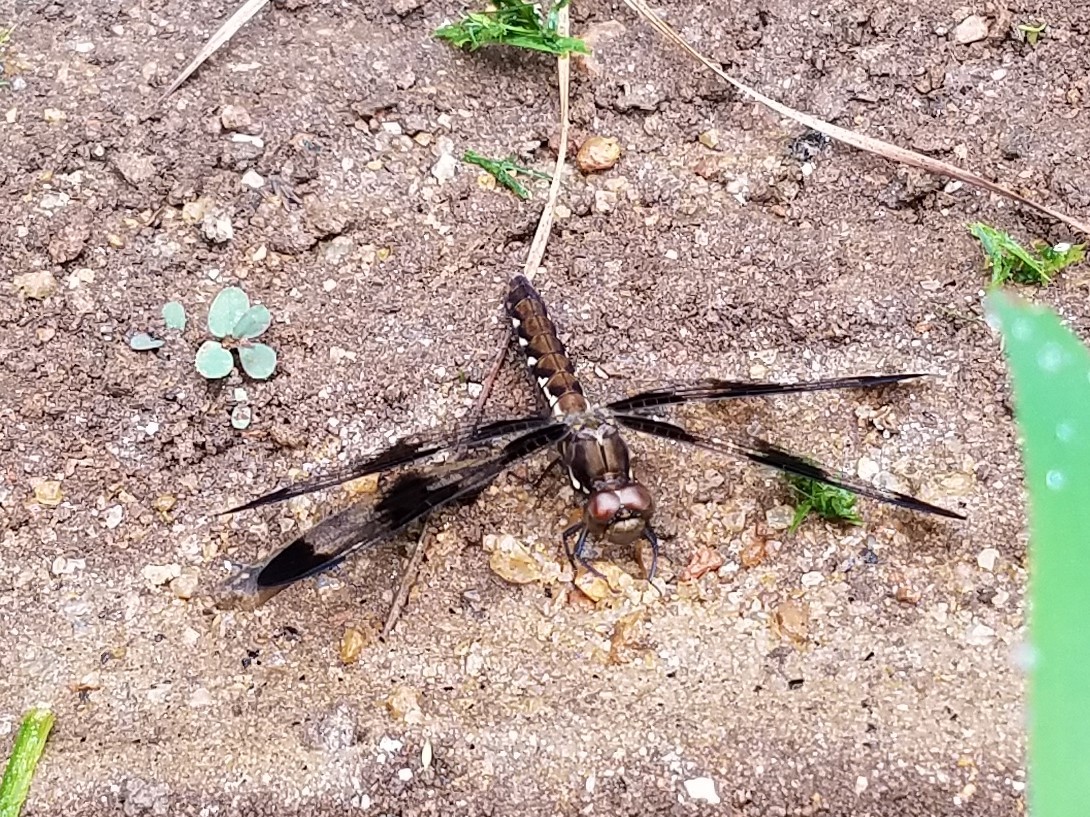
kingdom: Animalia
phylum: Arthropoda
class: Insecta
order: Odonata
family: Libellulidae
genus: Plathemis
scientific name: Plathemis lydia
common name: Common whitetail
